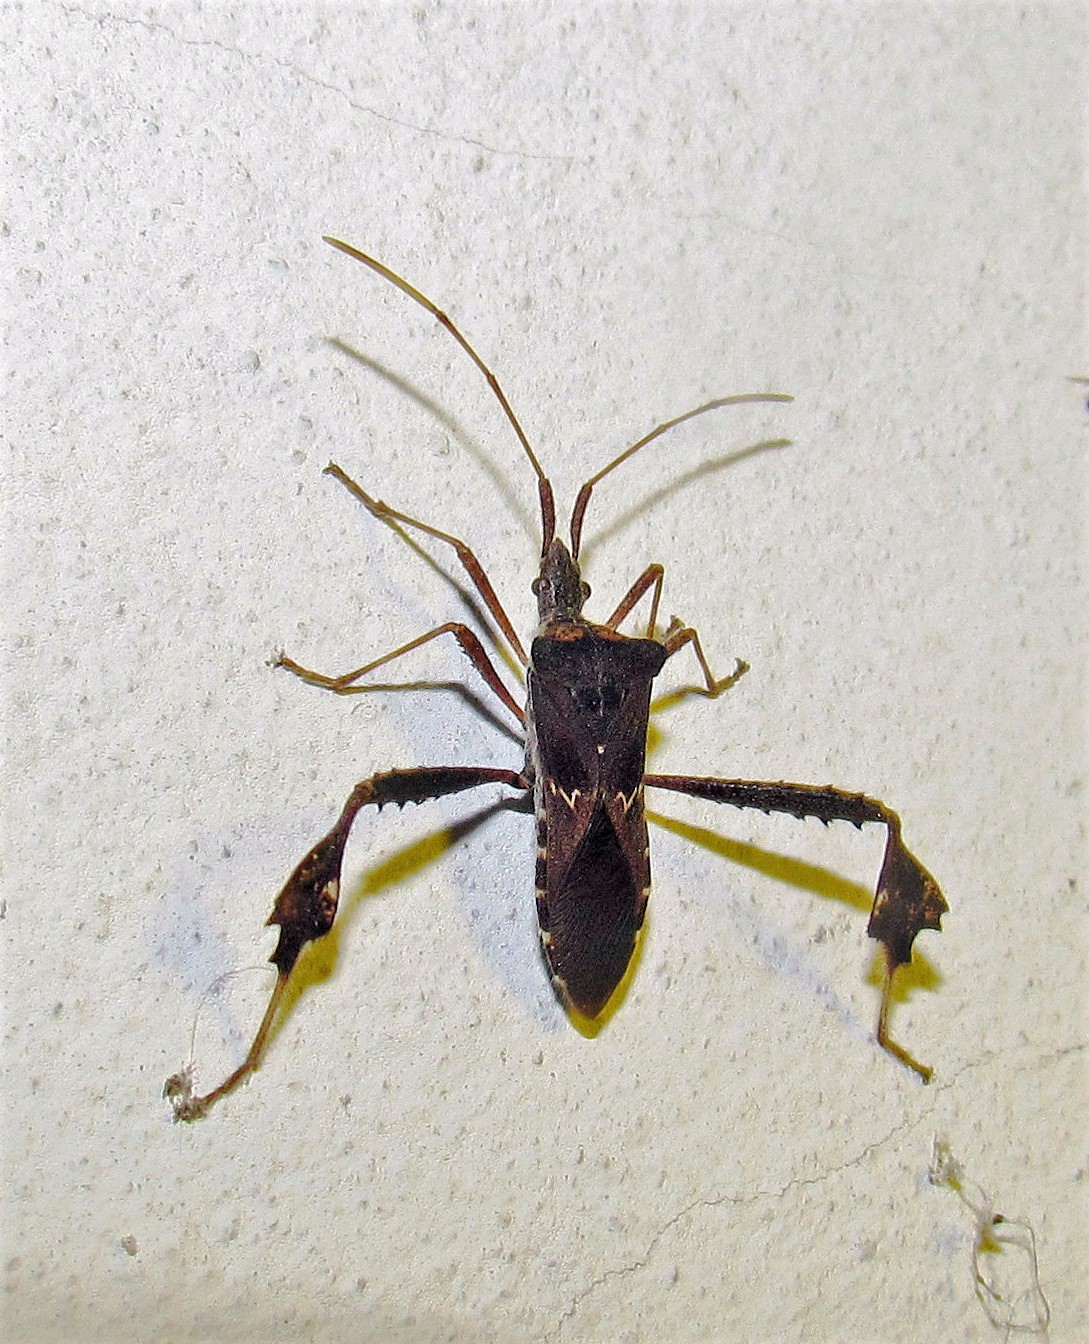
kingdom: Animalia
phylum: Arthropoda
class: Insecta
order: Hemiptera
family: Coreidae
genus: Leptoglossus
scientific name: Leptoglossus neovexillatus
